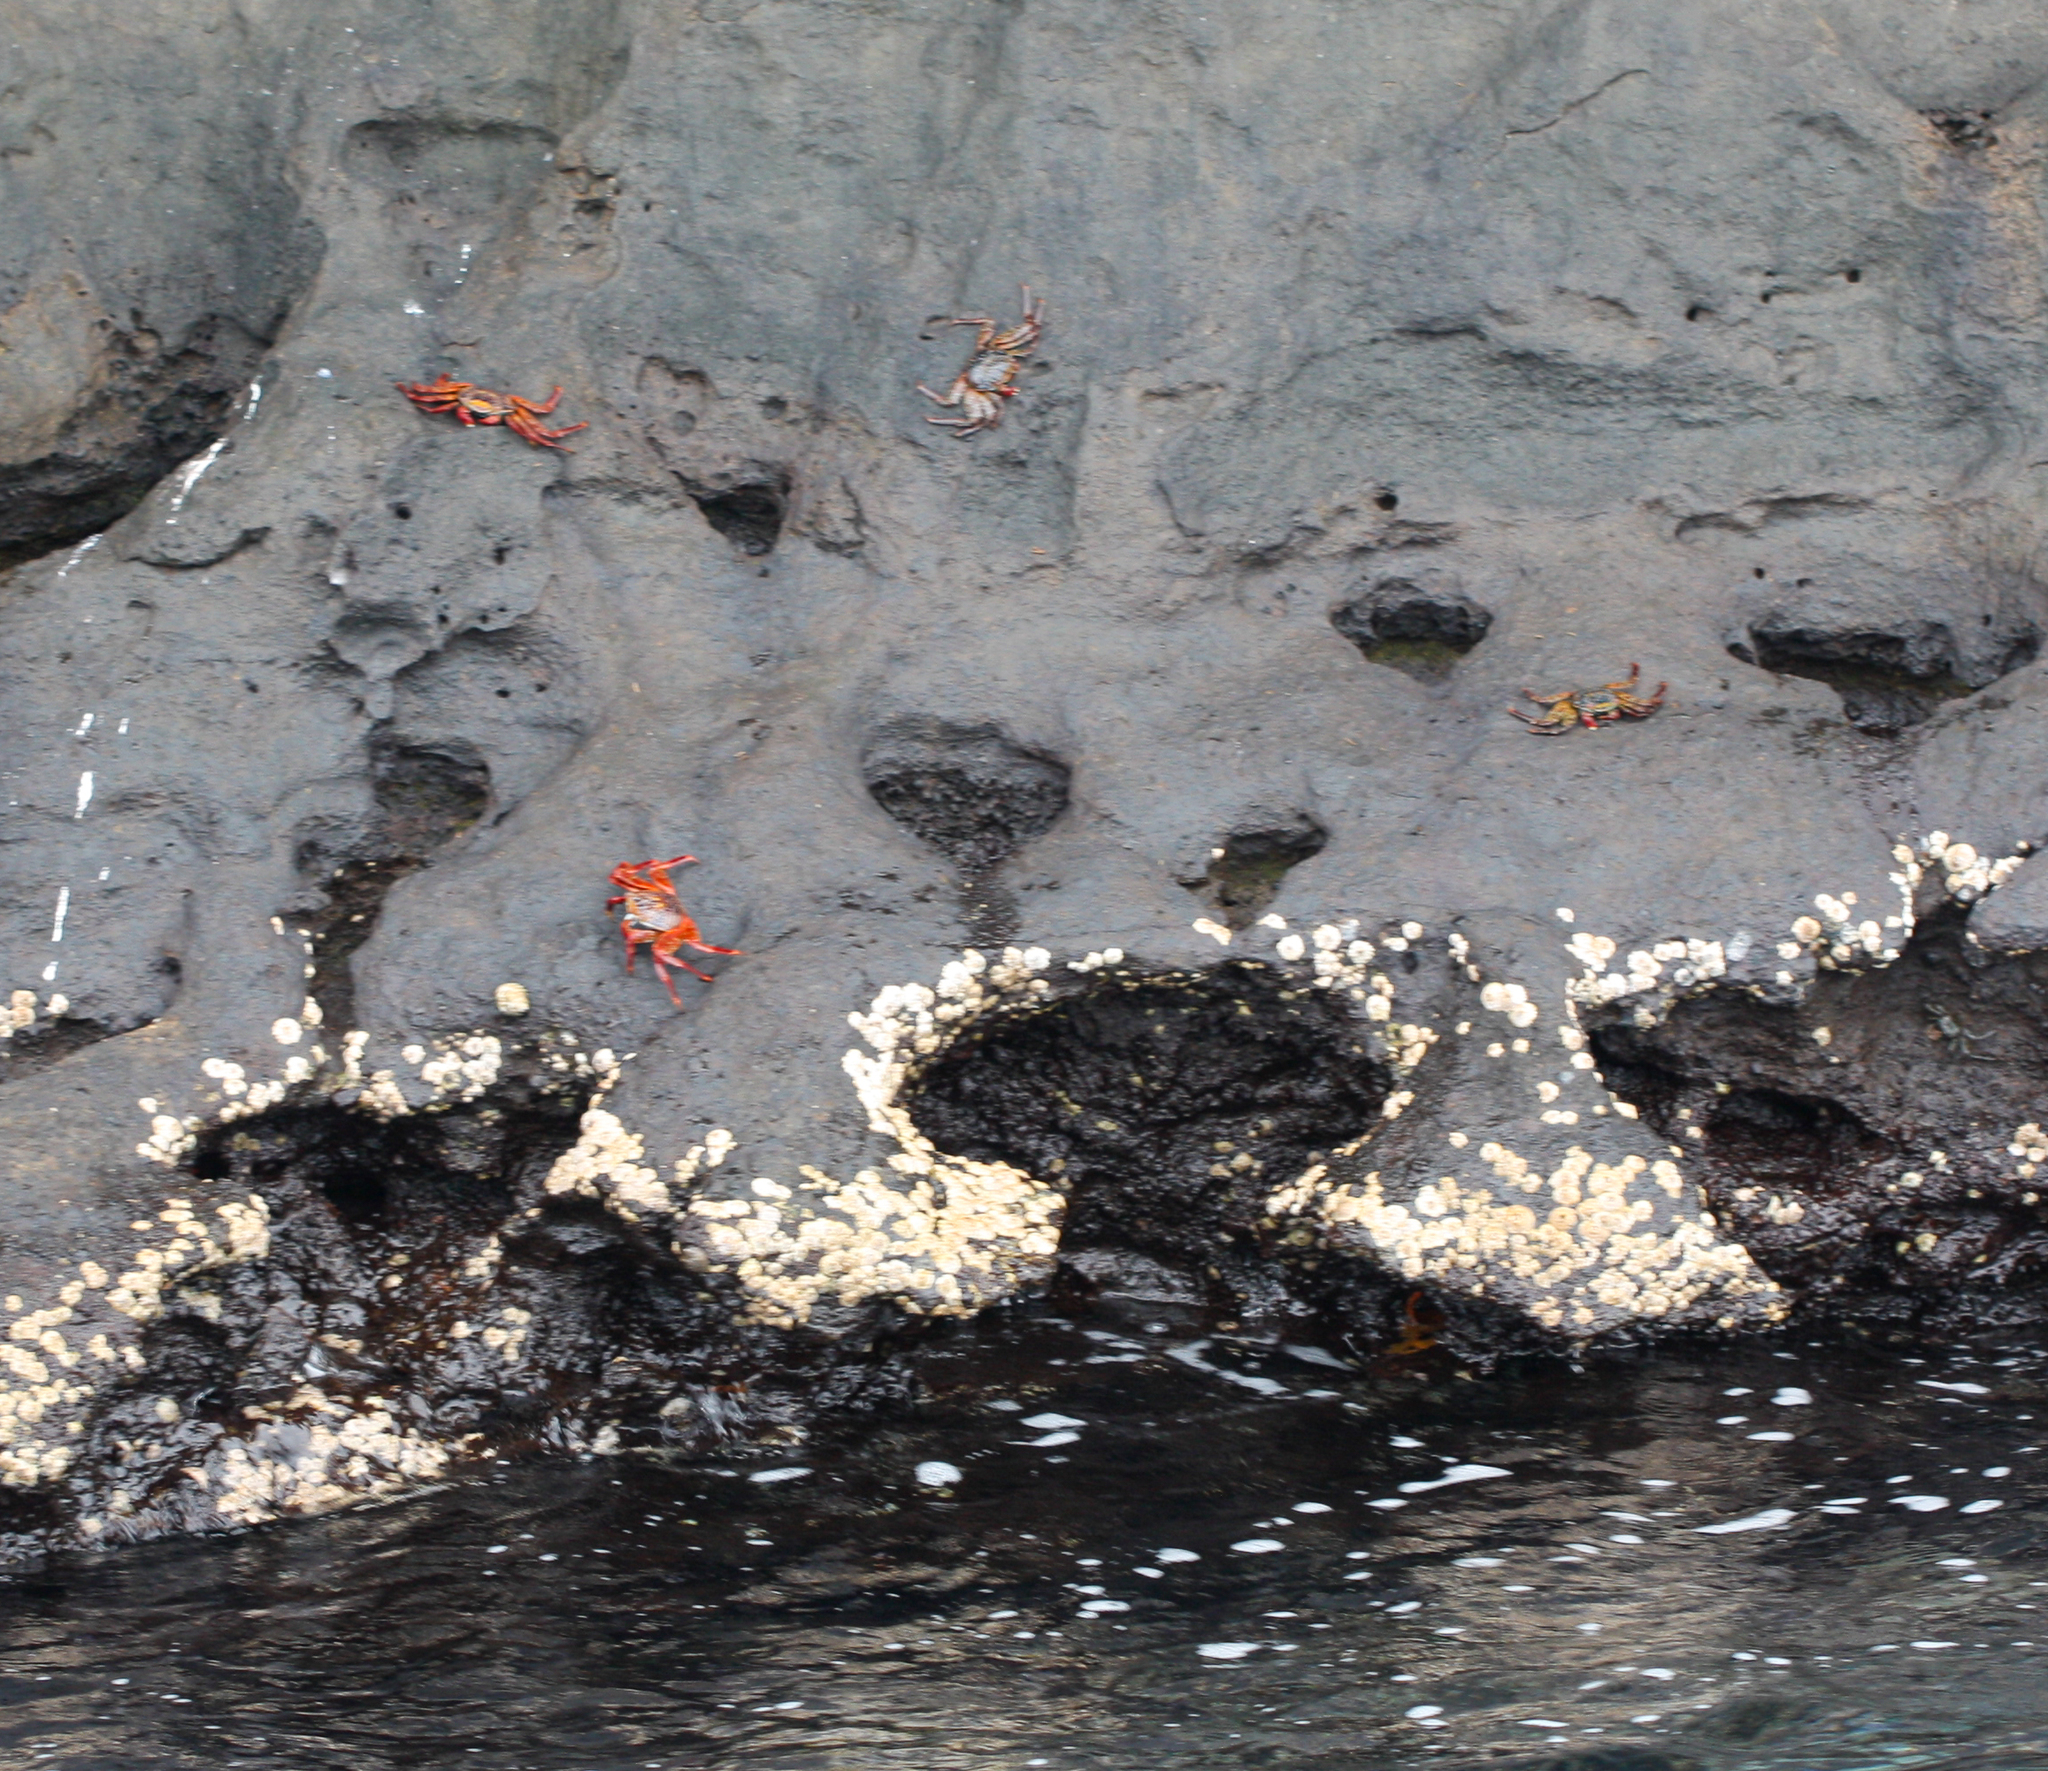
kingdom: Animalia
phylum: Arthropoda
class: Malacostraca
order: Decapoda
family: Grapsidae
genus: Grapsus
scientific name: Grapsus grapsus
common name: Sally lightfoot
